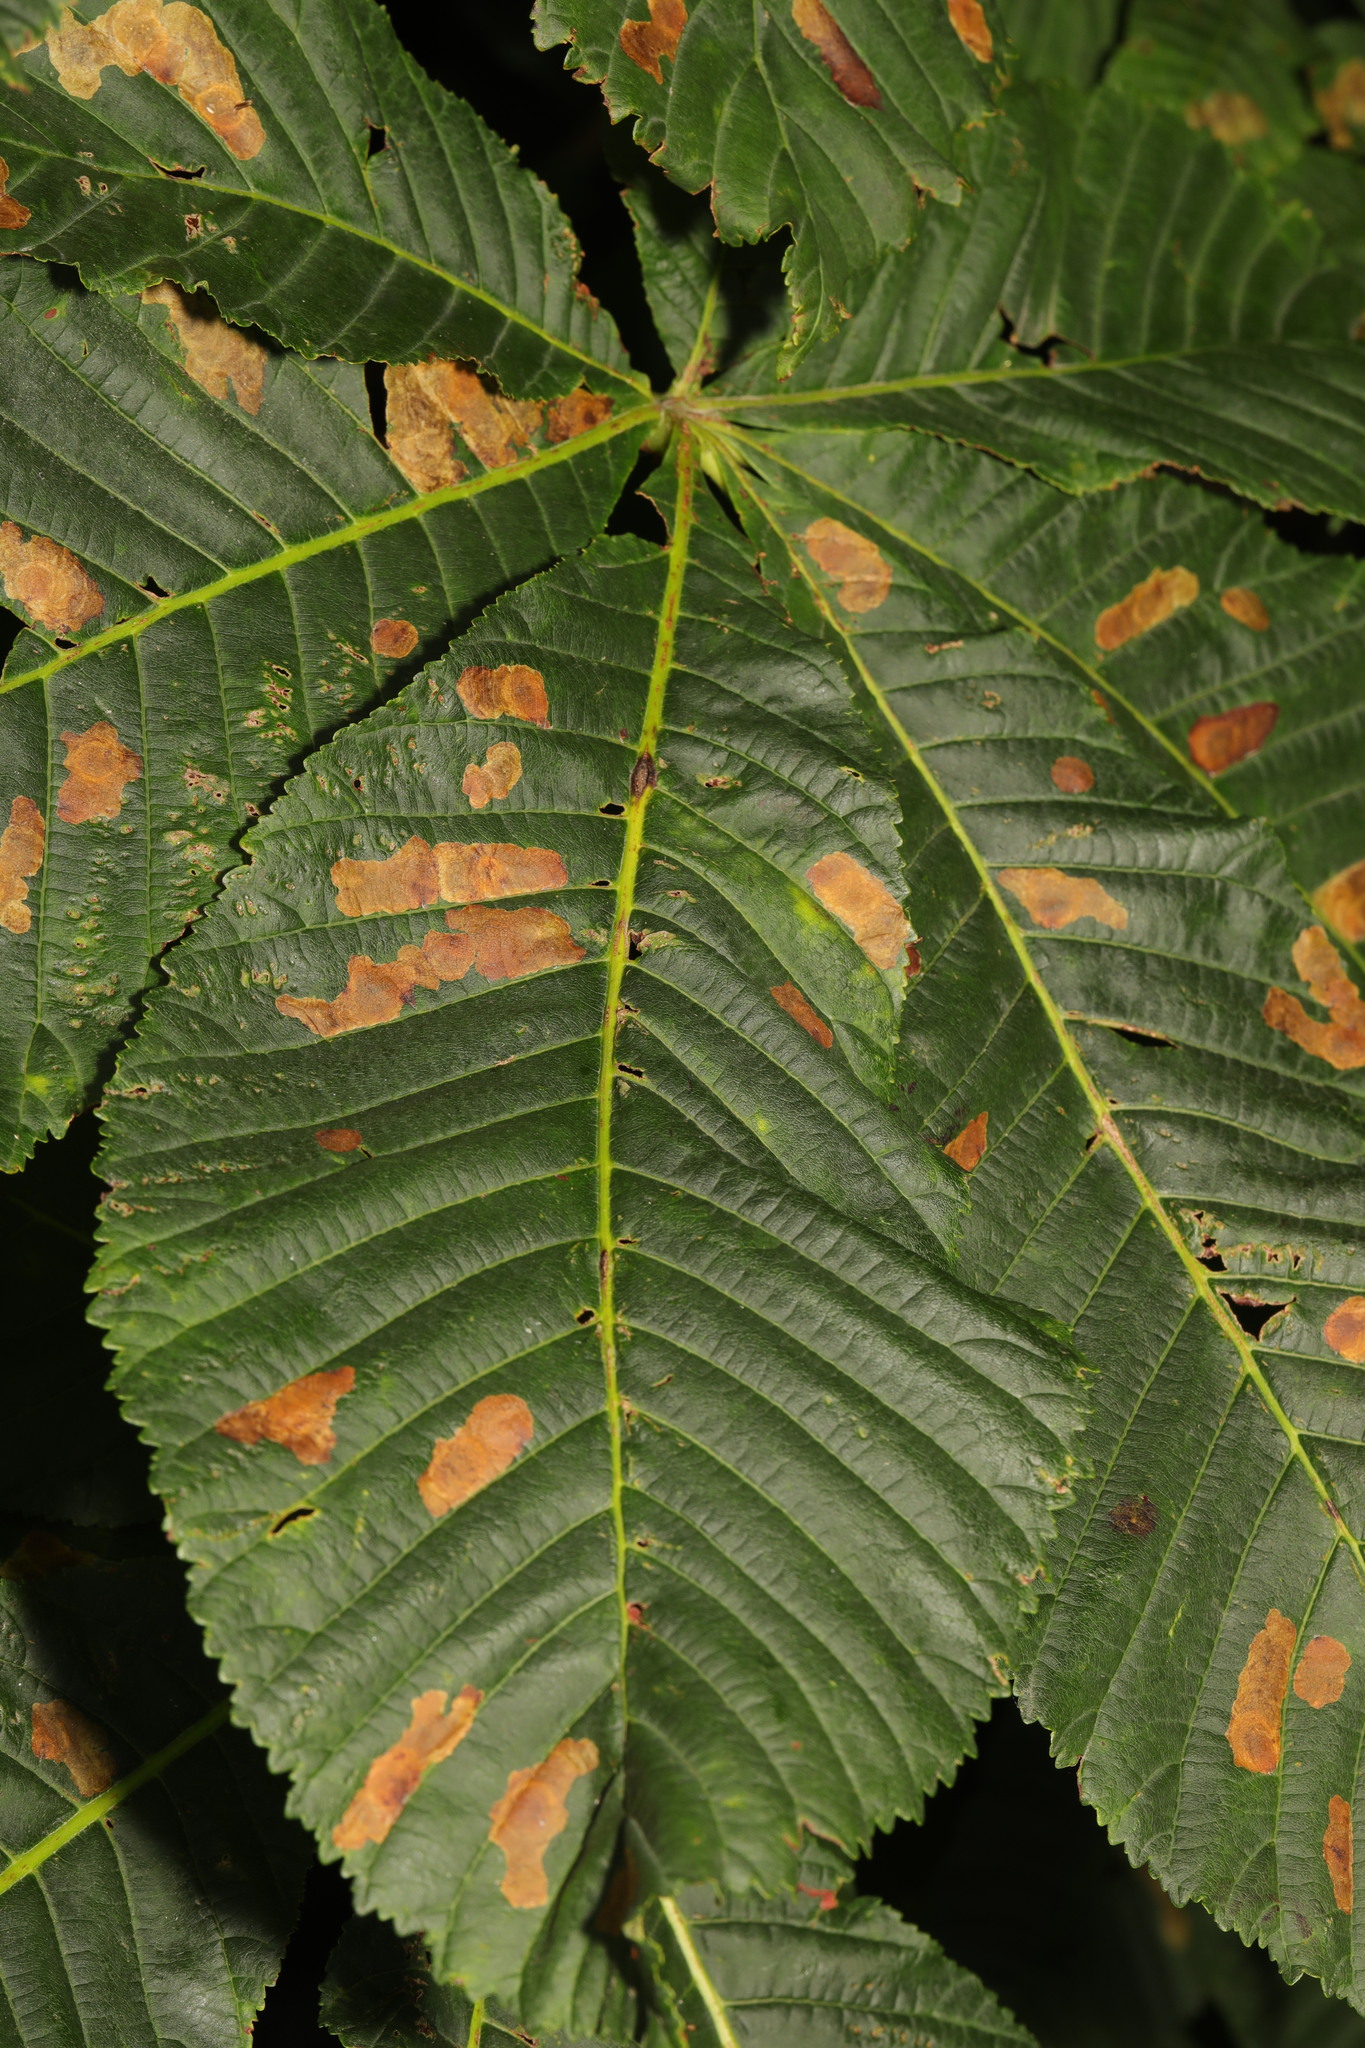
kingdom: Animalia
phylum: Arthropoda
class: Insecta
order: Lepidoptera
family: Gracillariidae
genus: Cameraria
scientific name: Cameraria ohridella
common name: Horse-chestnut leaf-miner
